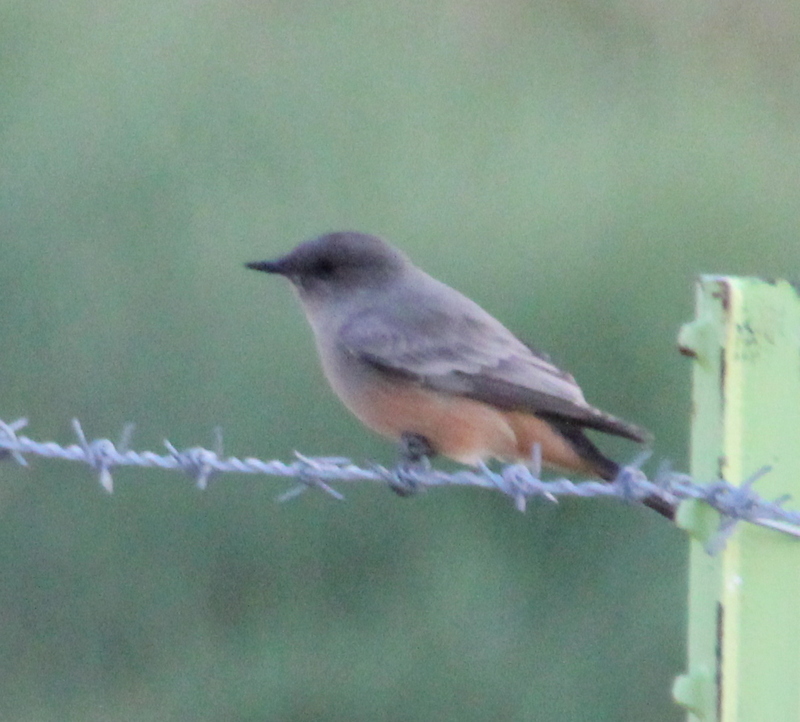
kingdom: Animalia
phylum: Chordata
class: Aves
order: Passeriformes
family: Tyrannidae
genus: Sayornis
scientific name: Sayornis saya
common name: Say's phoebe
